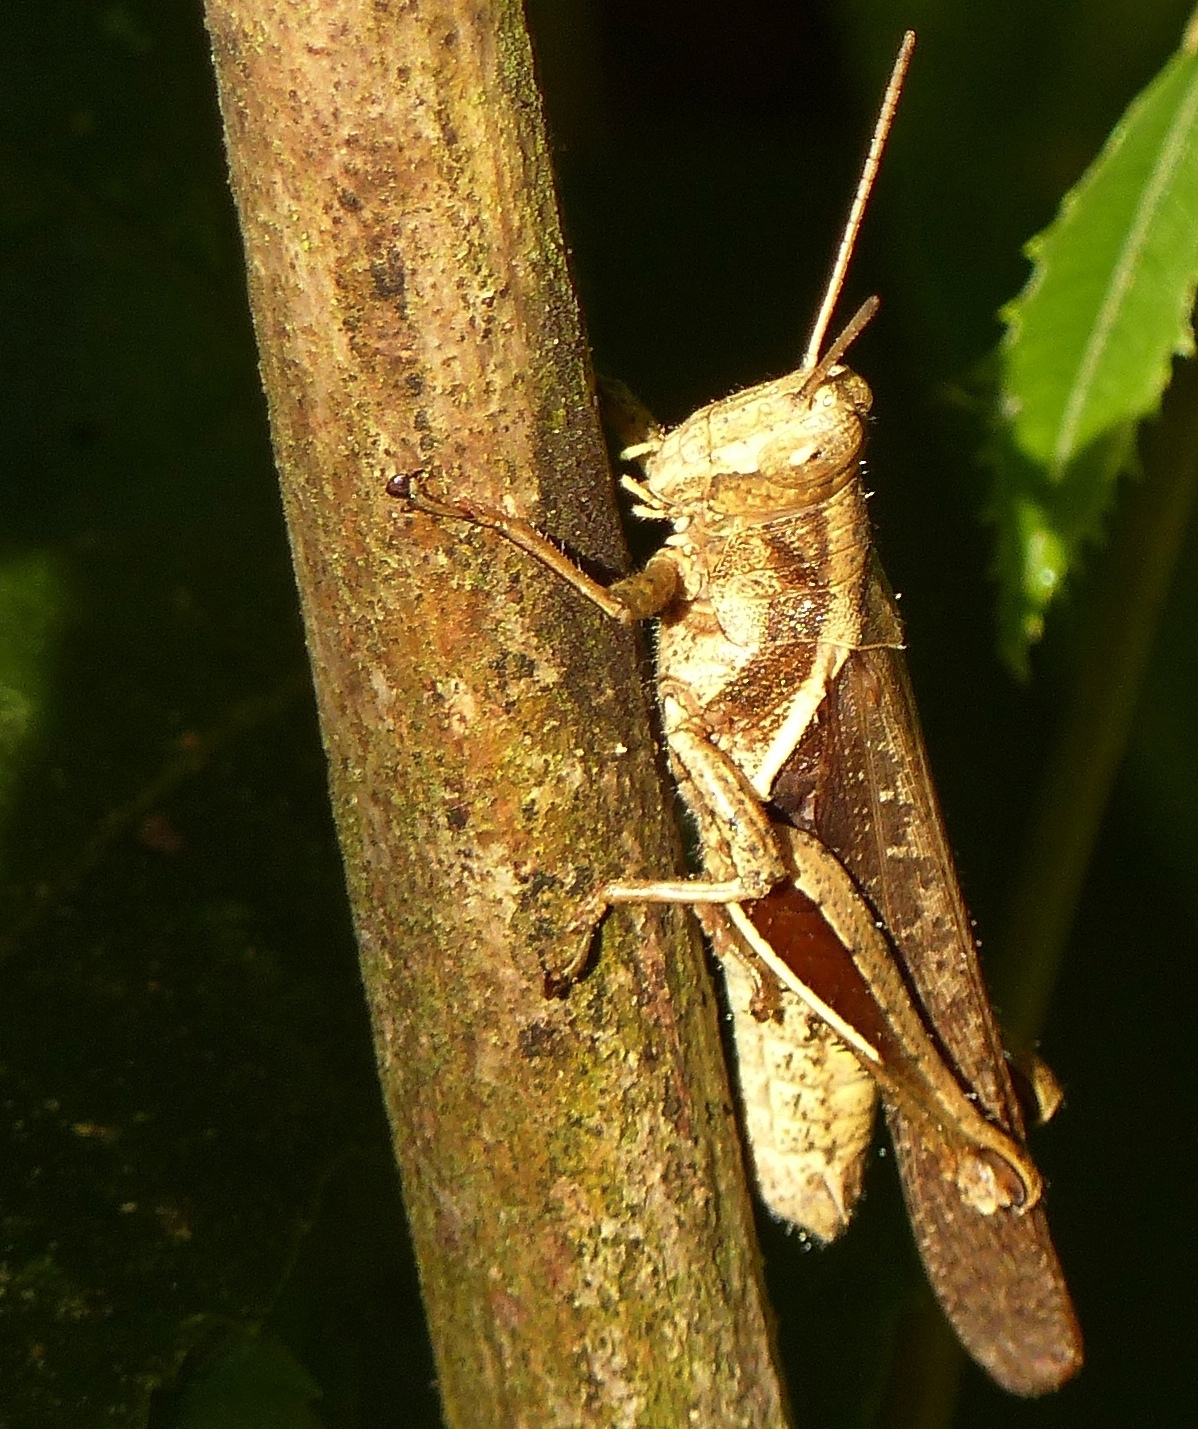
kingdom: Animalia
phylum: Arthropoda
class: Insecta
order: Orthoptera
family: Acrididae
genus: Abracris
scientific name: Abracris flavolineata
